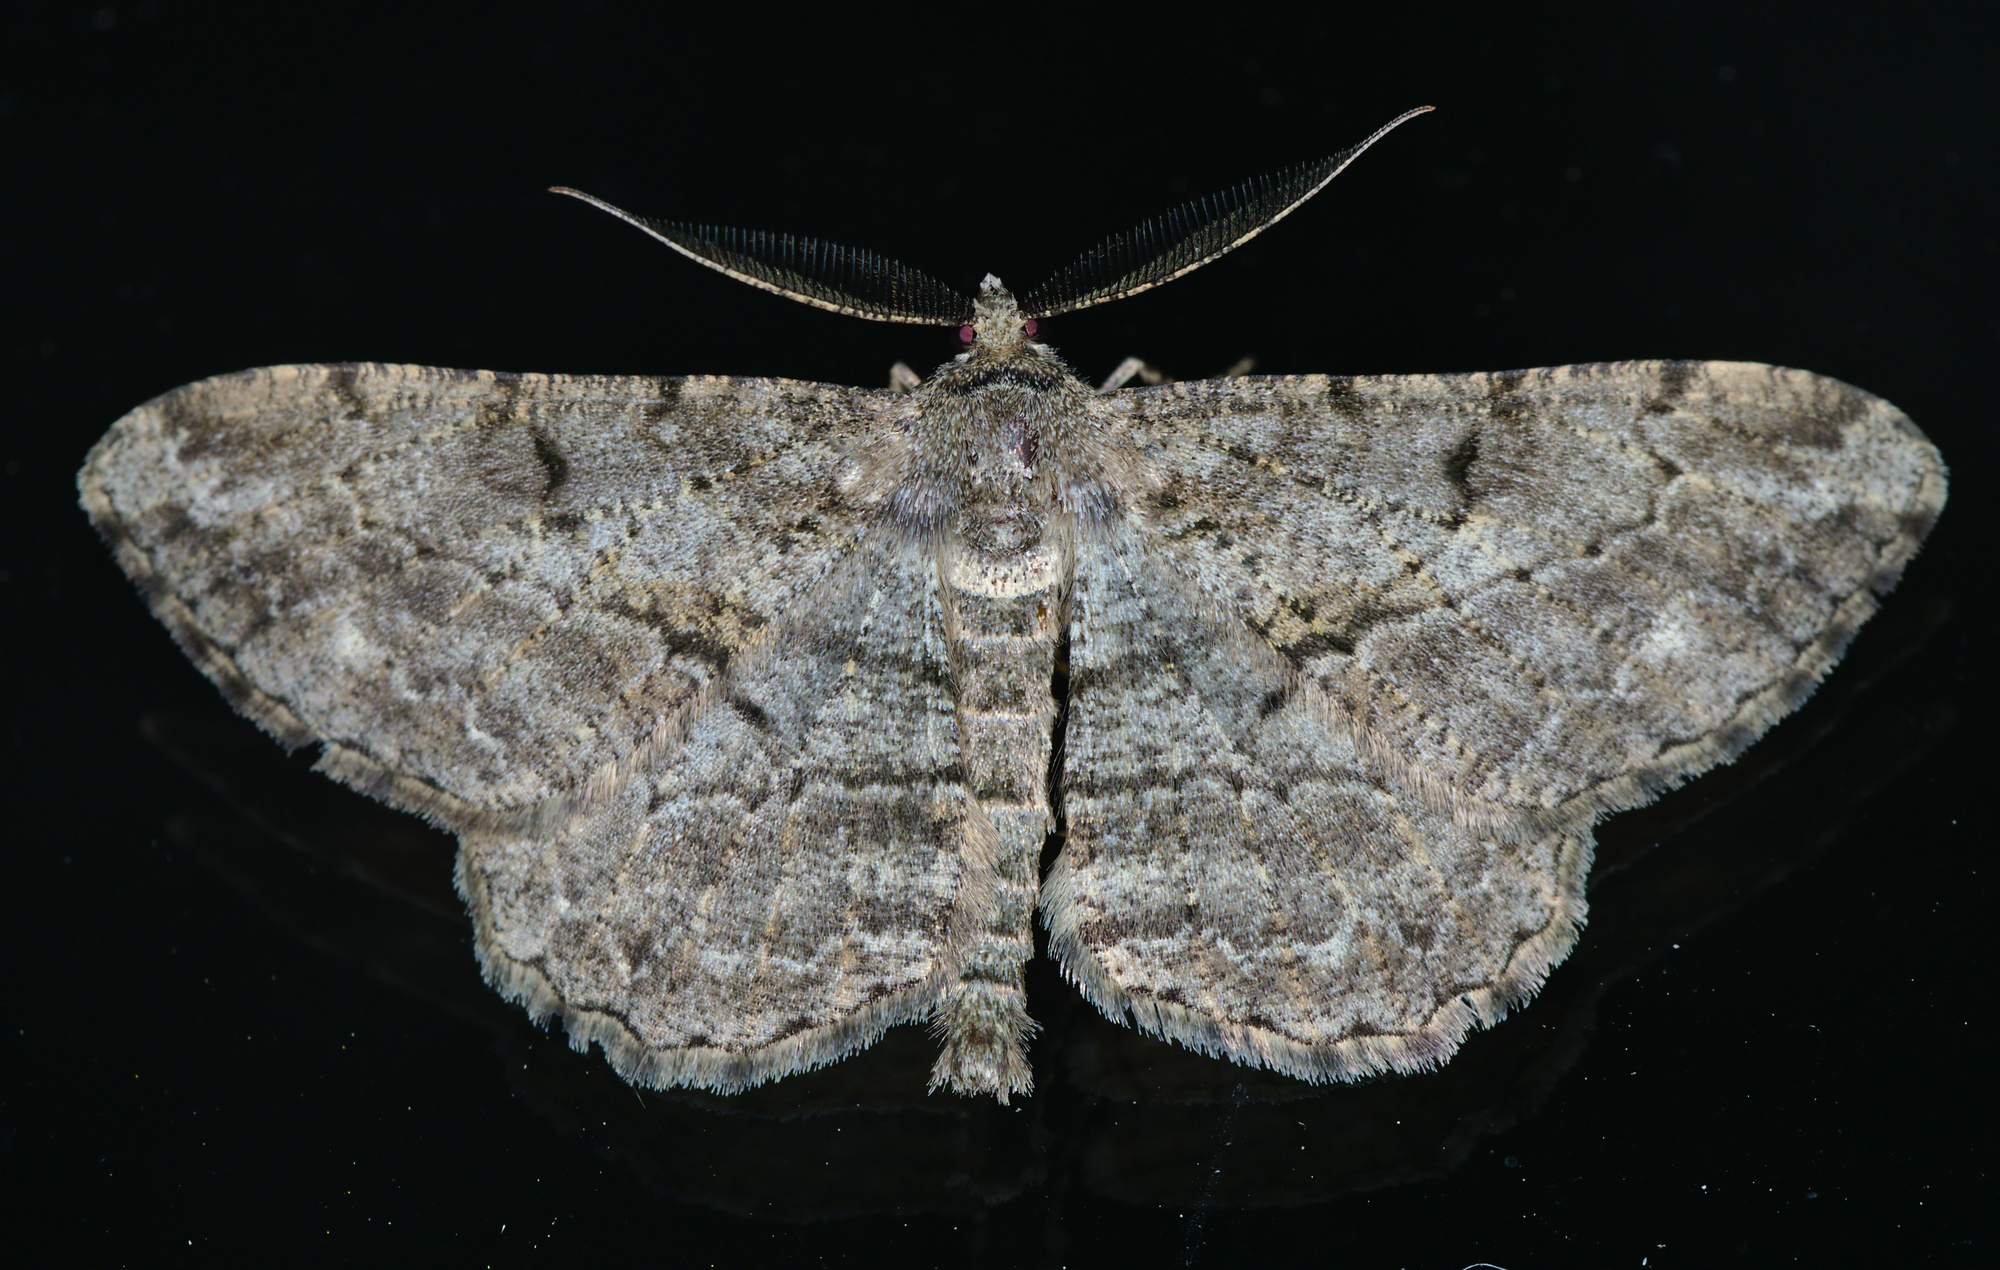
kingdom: Animalia
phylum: Arthropoda
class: Insecta
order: Lepidoptera
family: Geometridae
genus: Peribatodes
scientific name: Peribatodes rhomboidaria
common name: Willow beauty
